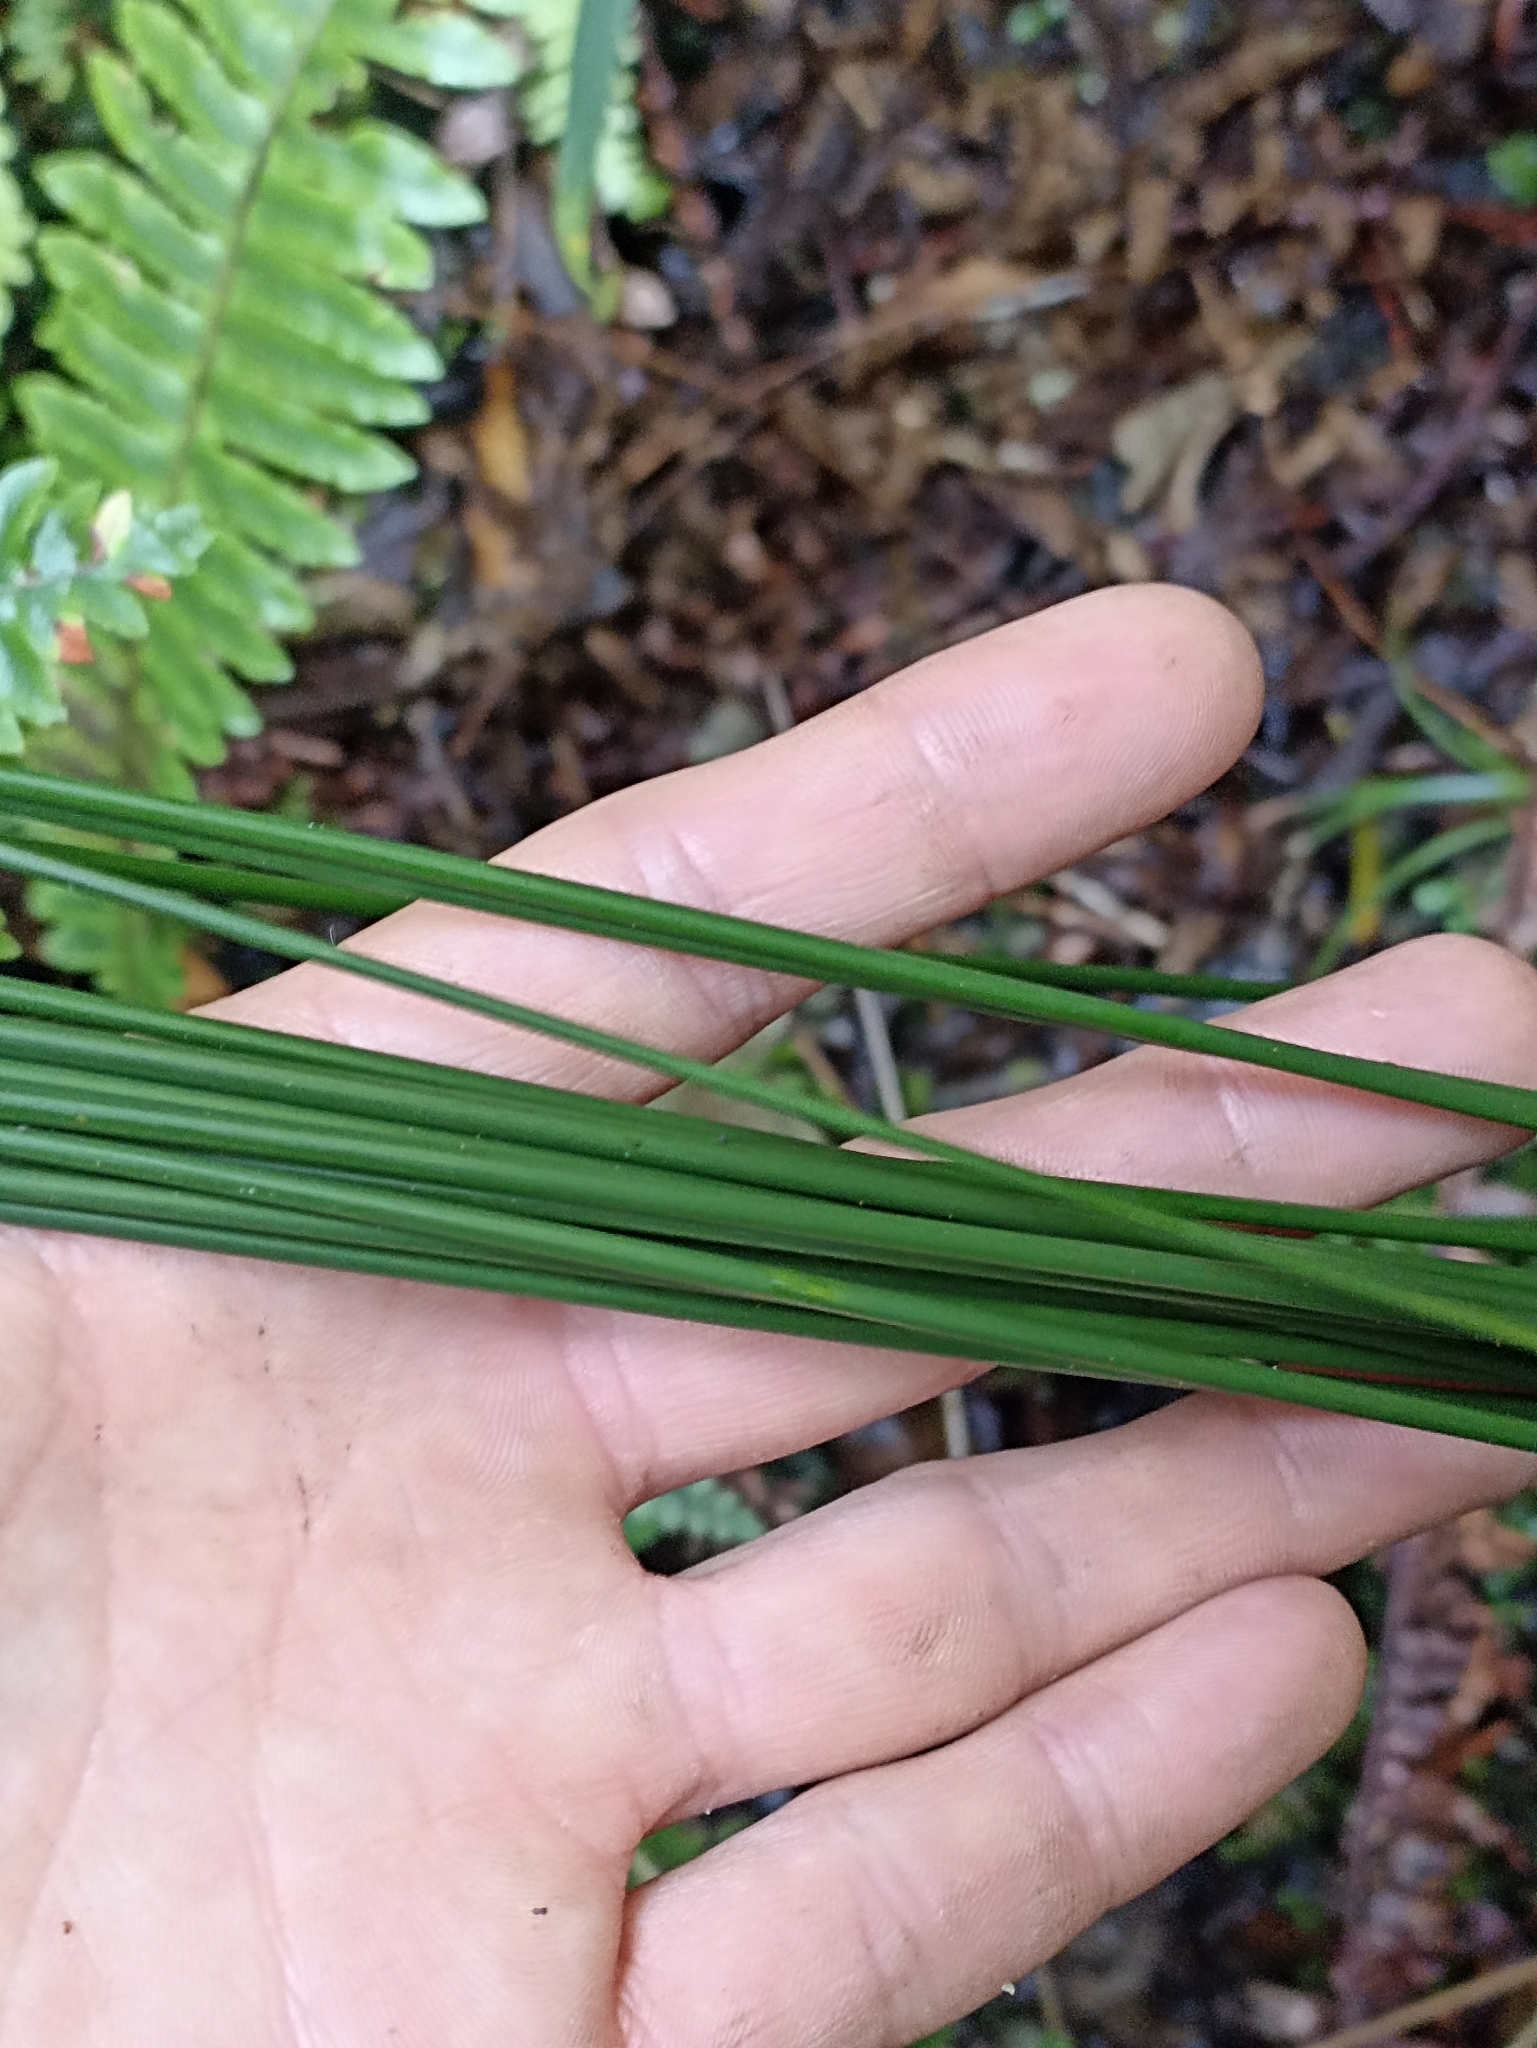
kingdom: Plantae
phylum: Tracheophyta
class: Liliopsida
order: Poales
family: Juncaceae
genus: Juncus
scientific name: Juncus edgariae
